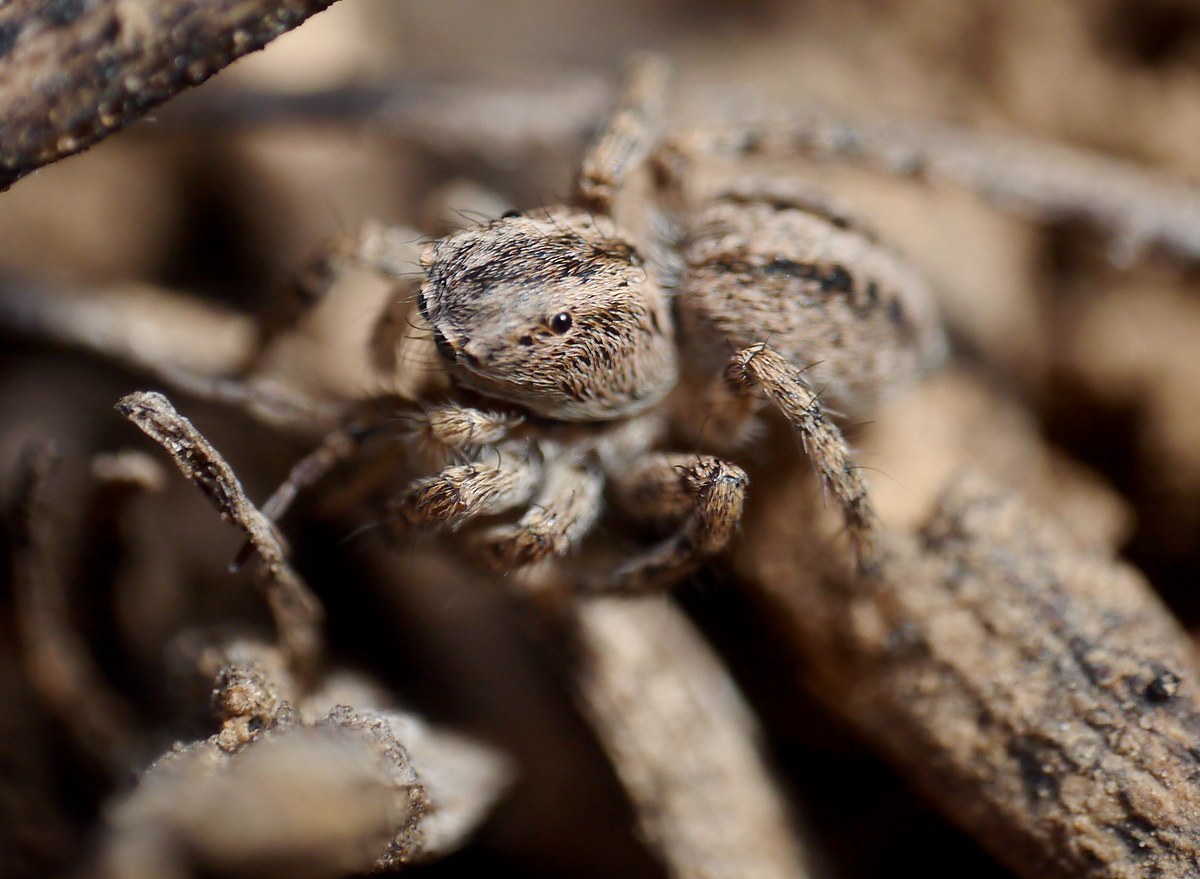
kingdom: Animalia
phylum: Arthropoda
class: Arachnida
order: Araneae
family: Salticidae
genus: Aelurillus
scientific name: Aelurillus v-insignitus
